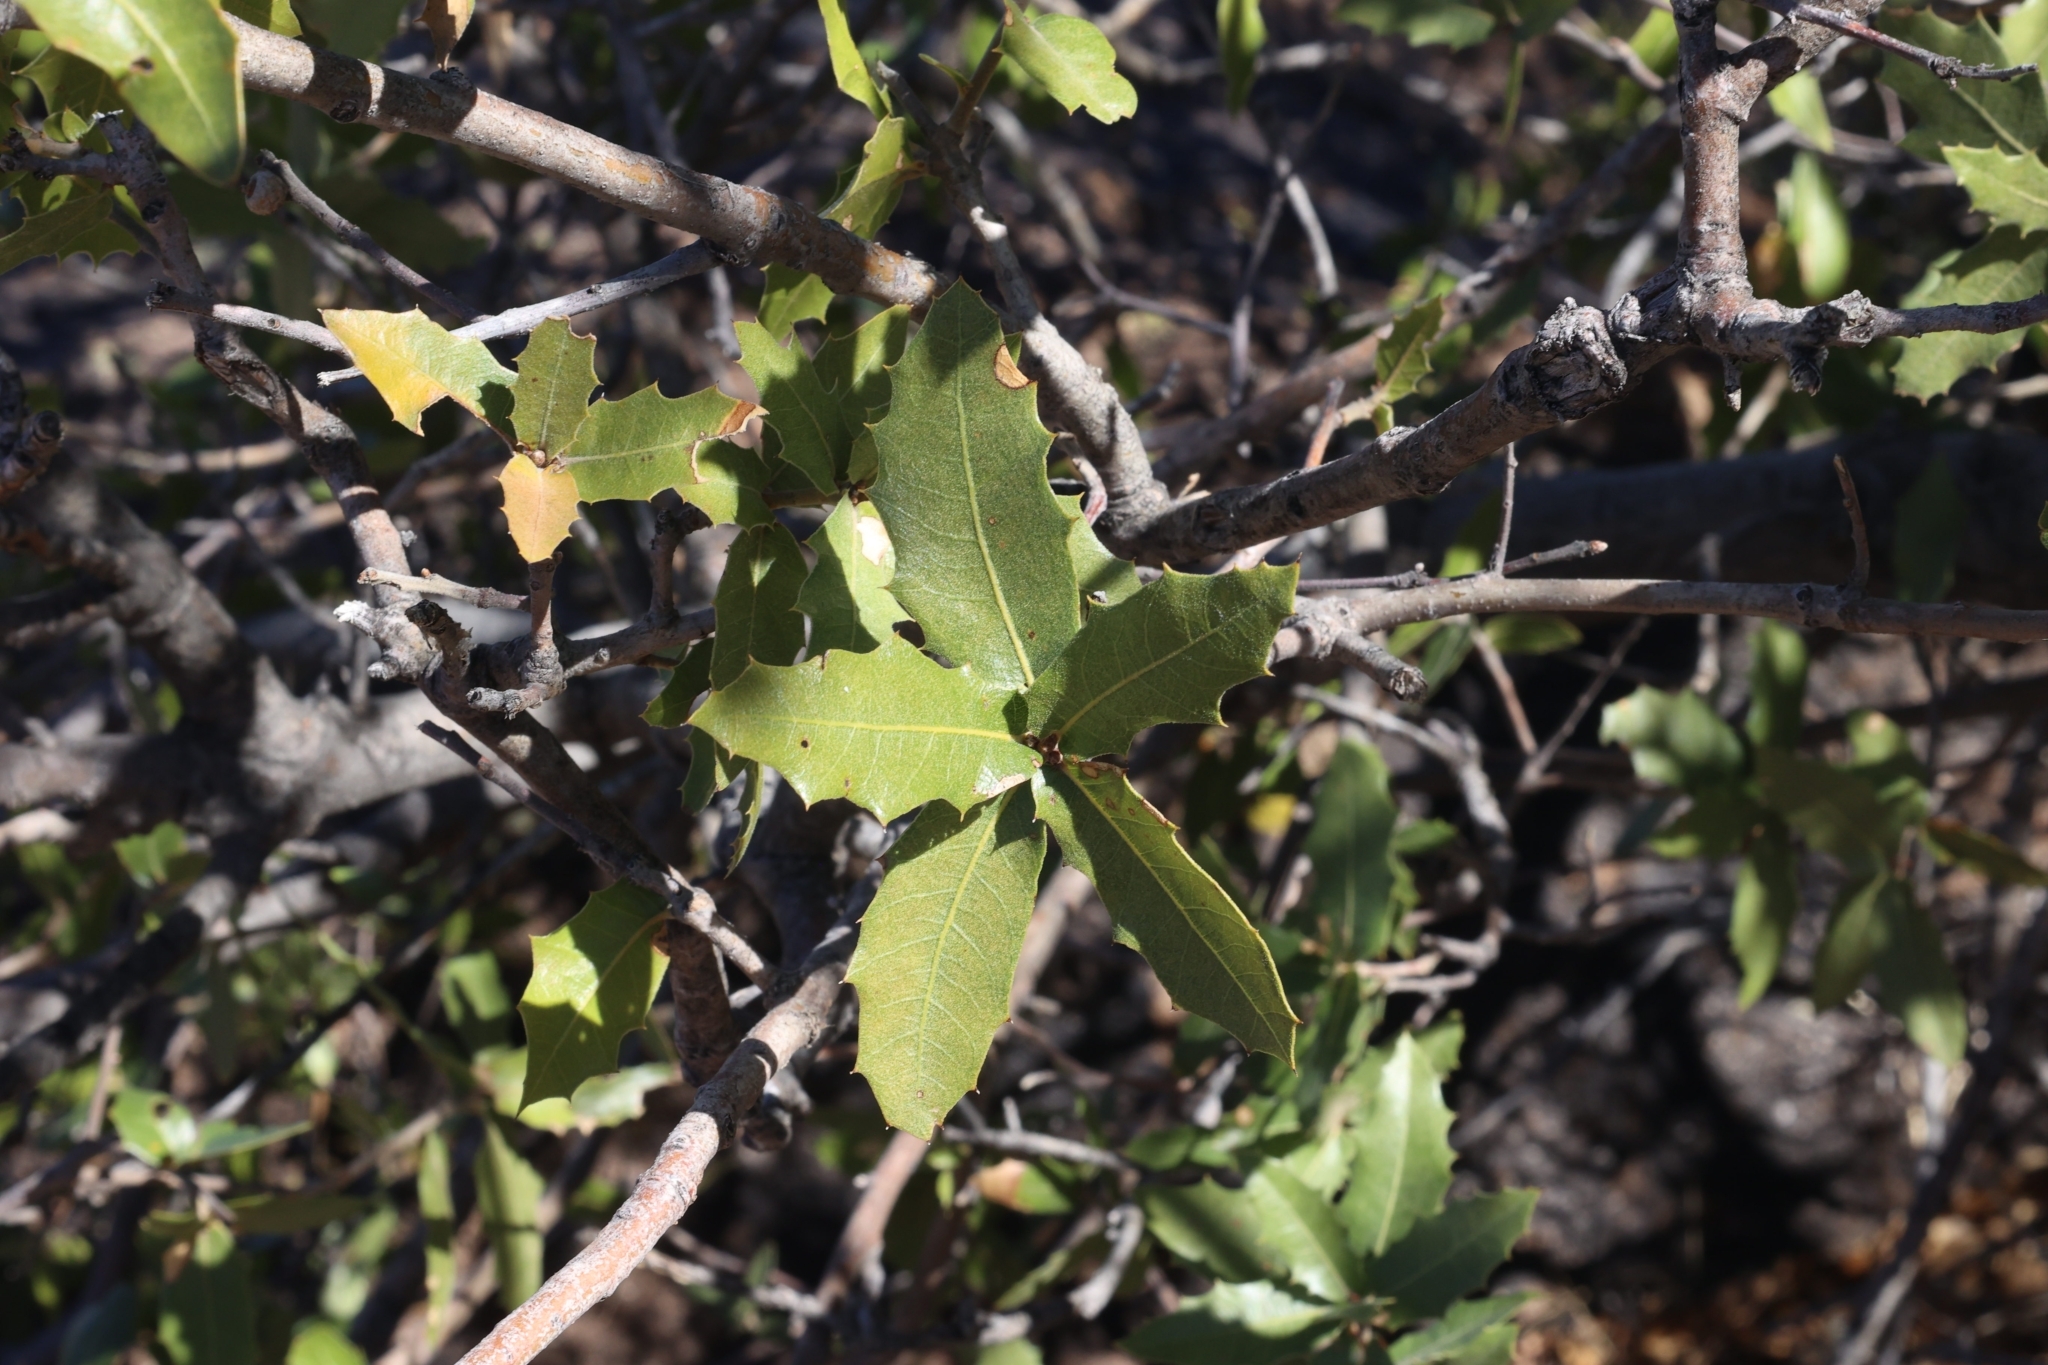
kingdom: Plantae
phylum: Tracheophyta
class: Magnoliopsida
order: Fagales
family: Fagaceae
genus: Quercus
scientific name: Quercus emoryi
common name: Emory oak
